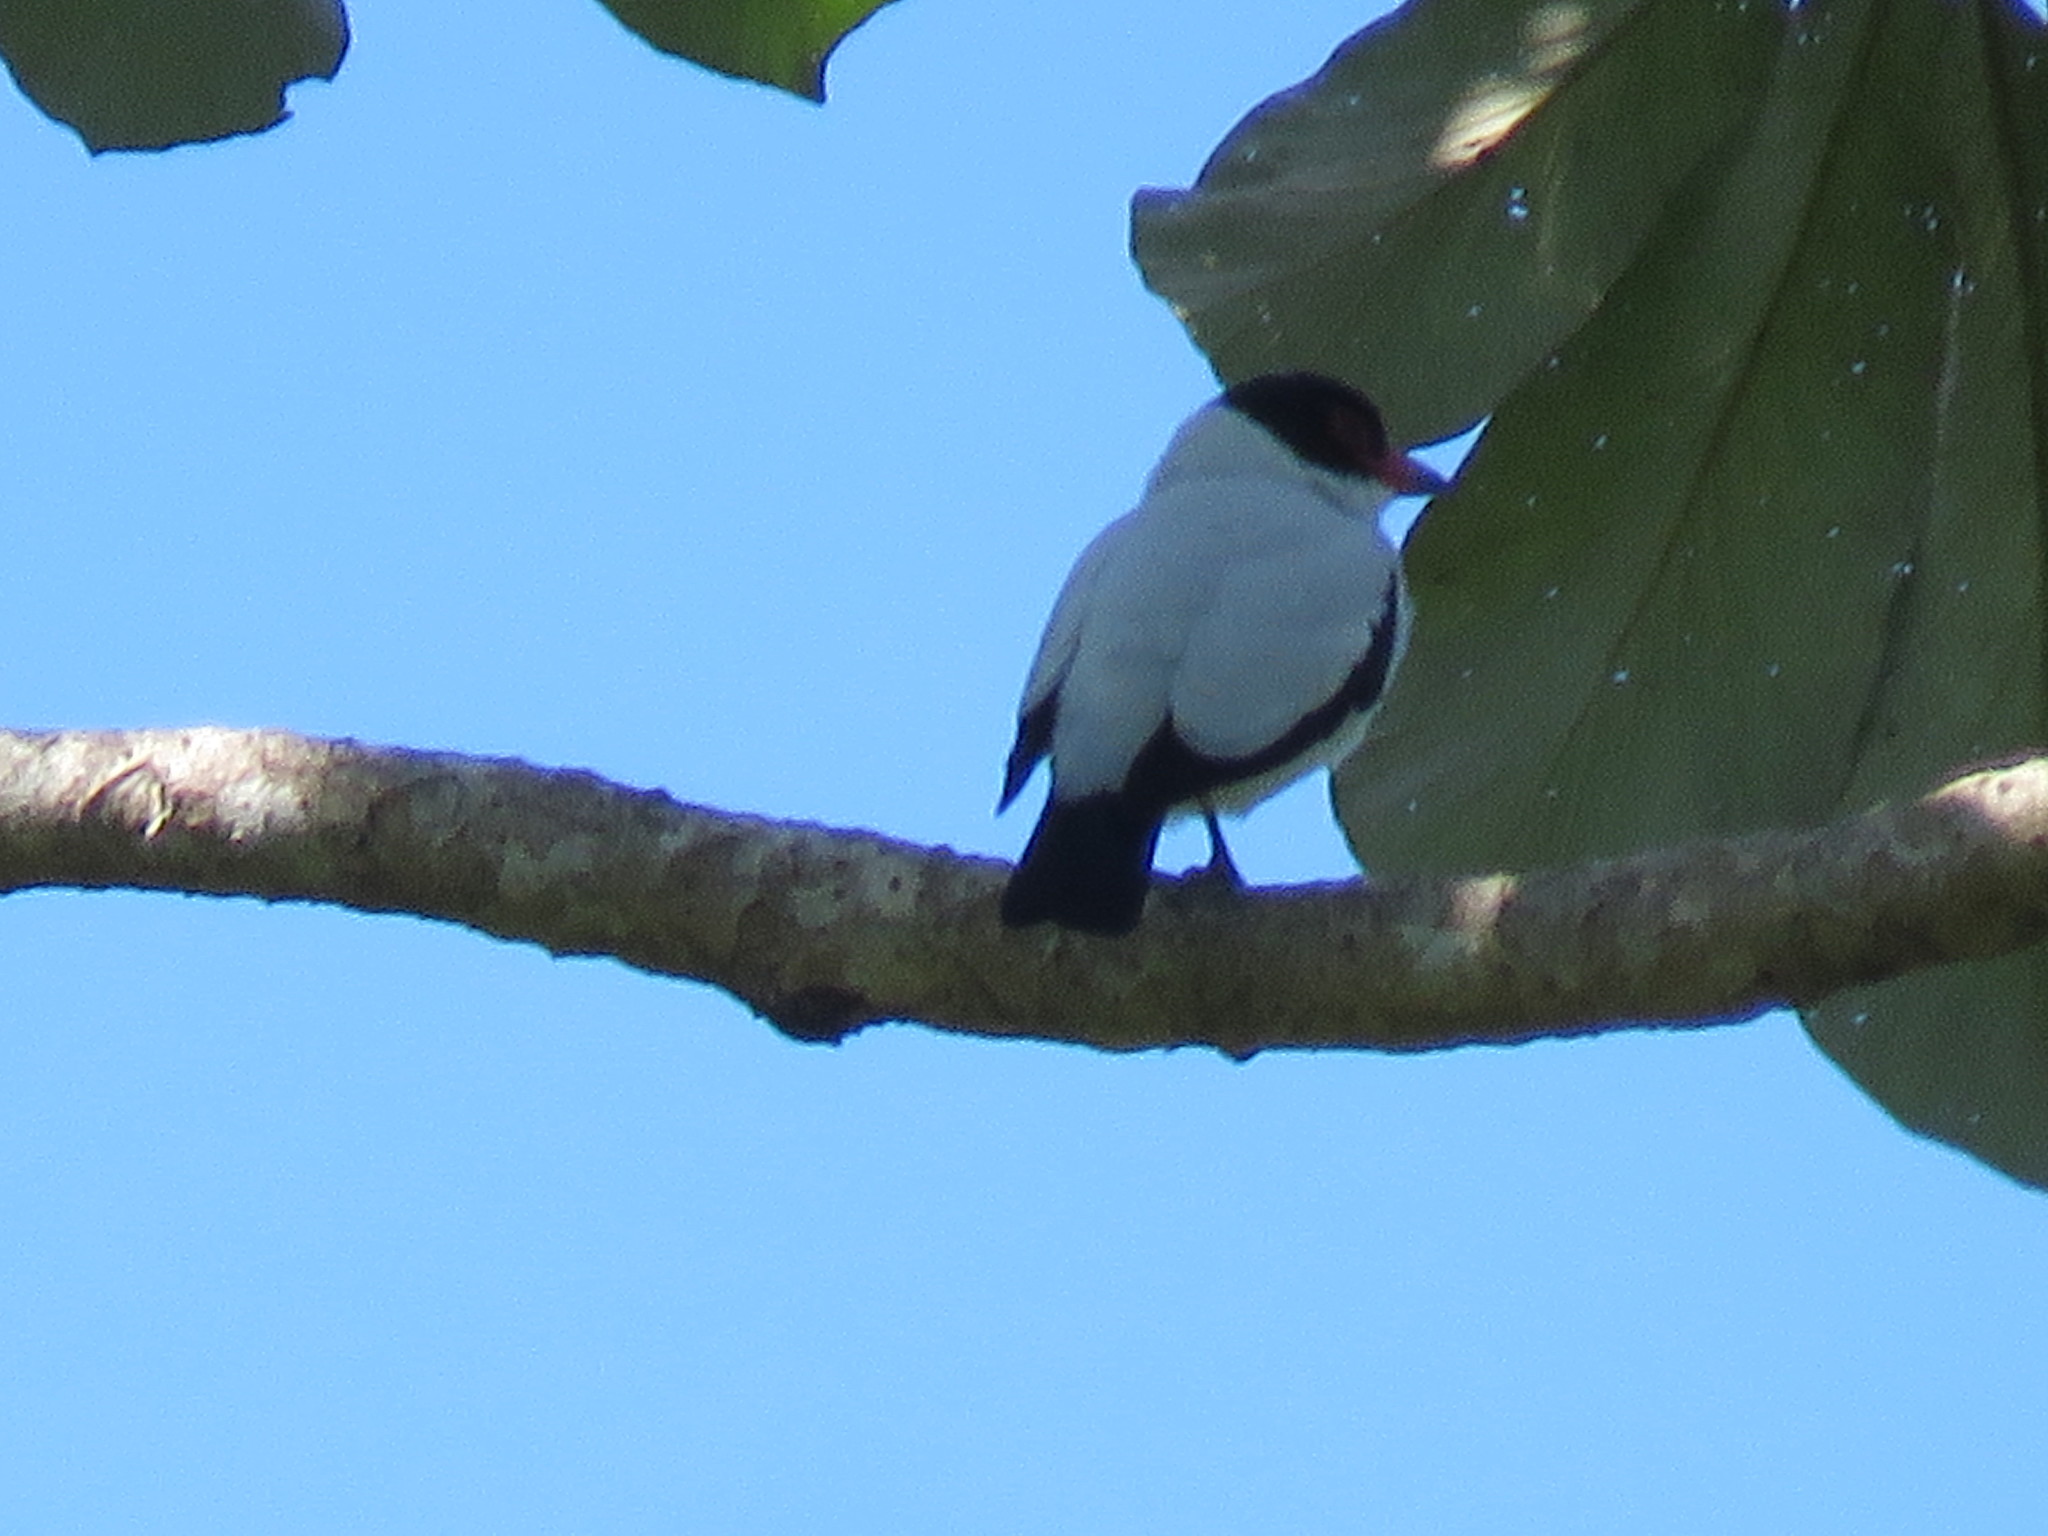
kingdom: Animalia
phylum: Chordata
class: Aves
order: Passeriformes
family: Cotingidae
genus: Tityra
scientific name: Tityra cayana
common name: Black-tailed tityra
